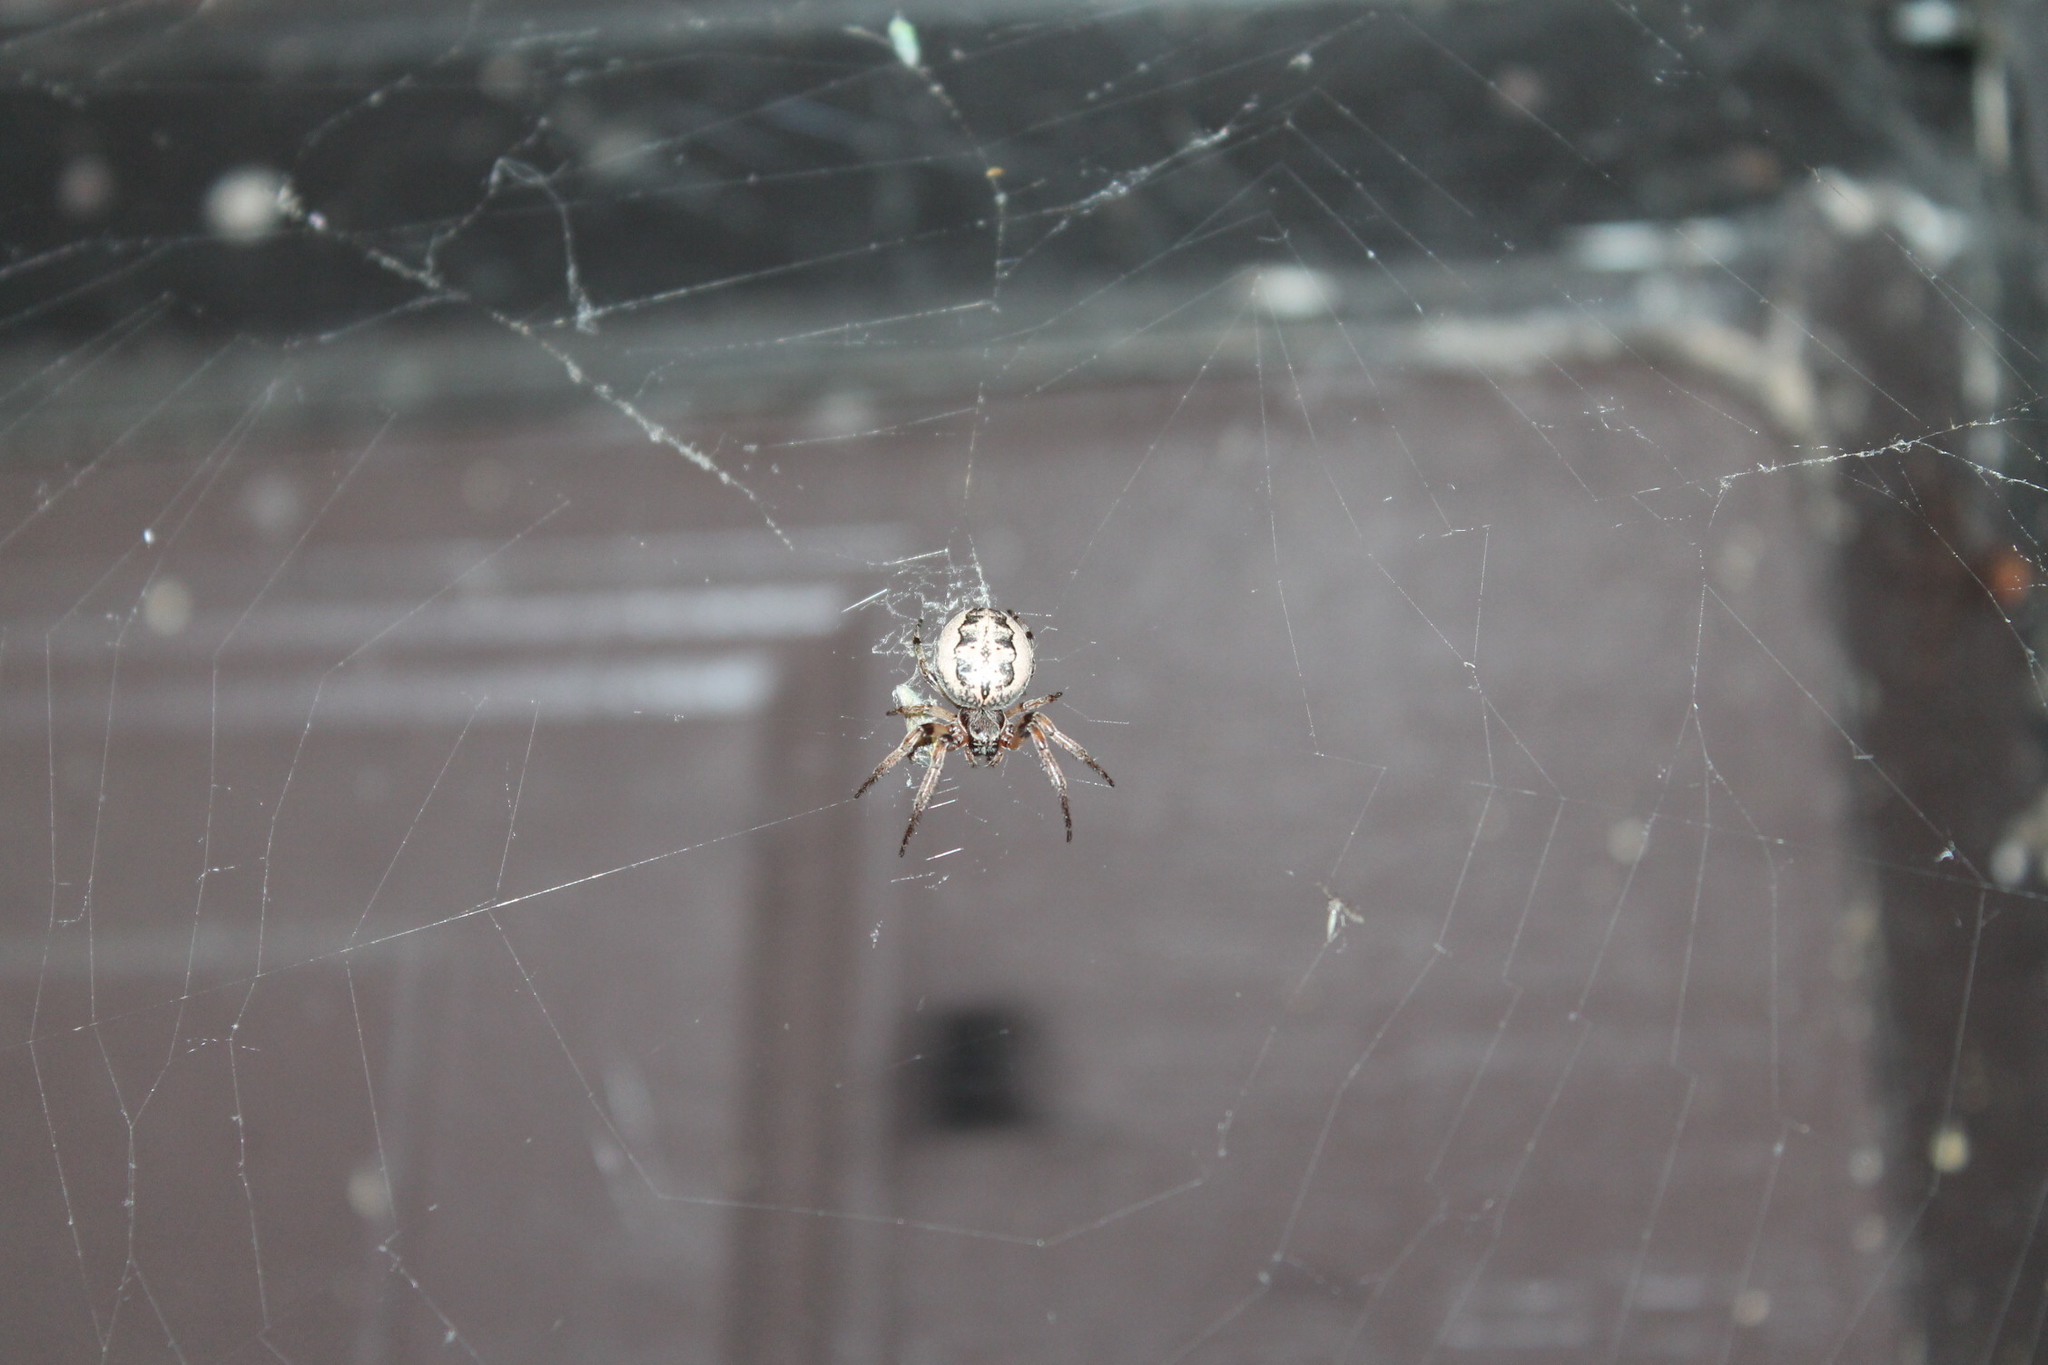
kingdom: Animalia
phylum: Arthropoda
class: Arachnida
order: Araneae
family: Araneidae
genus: Larinioides
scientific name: Larinioides cornutus
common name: Furrow orbweaver
